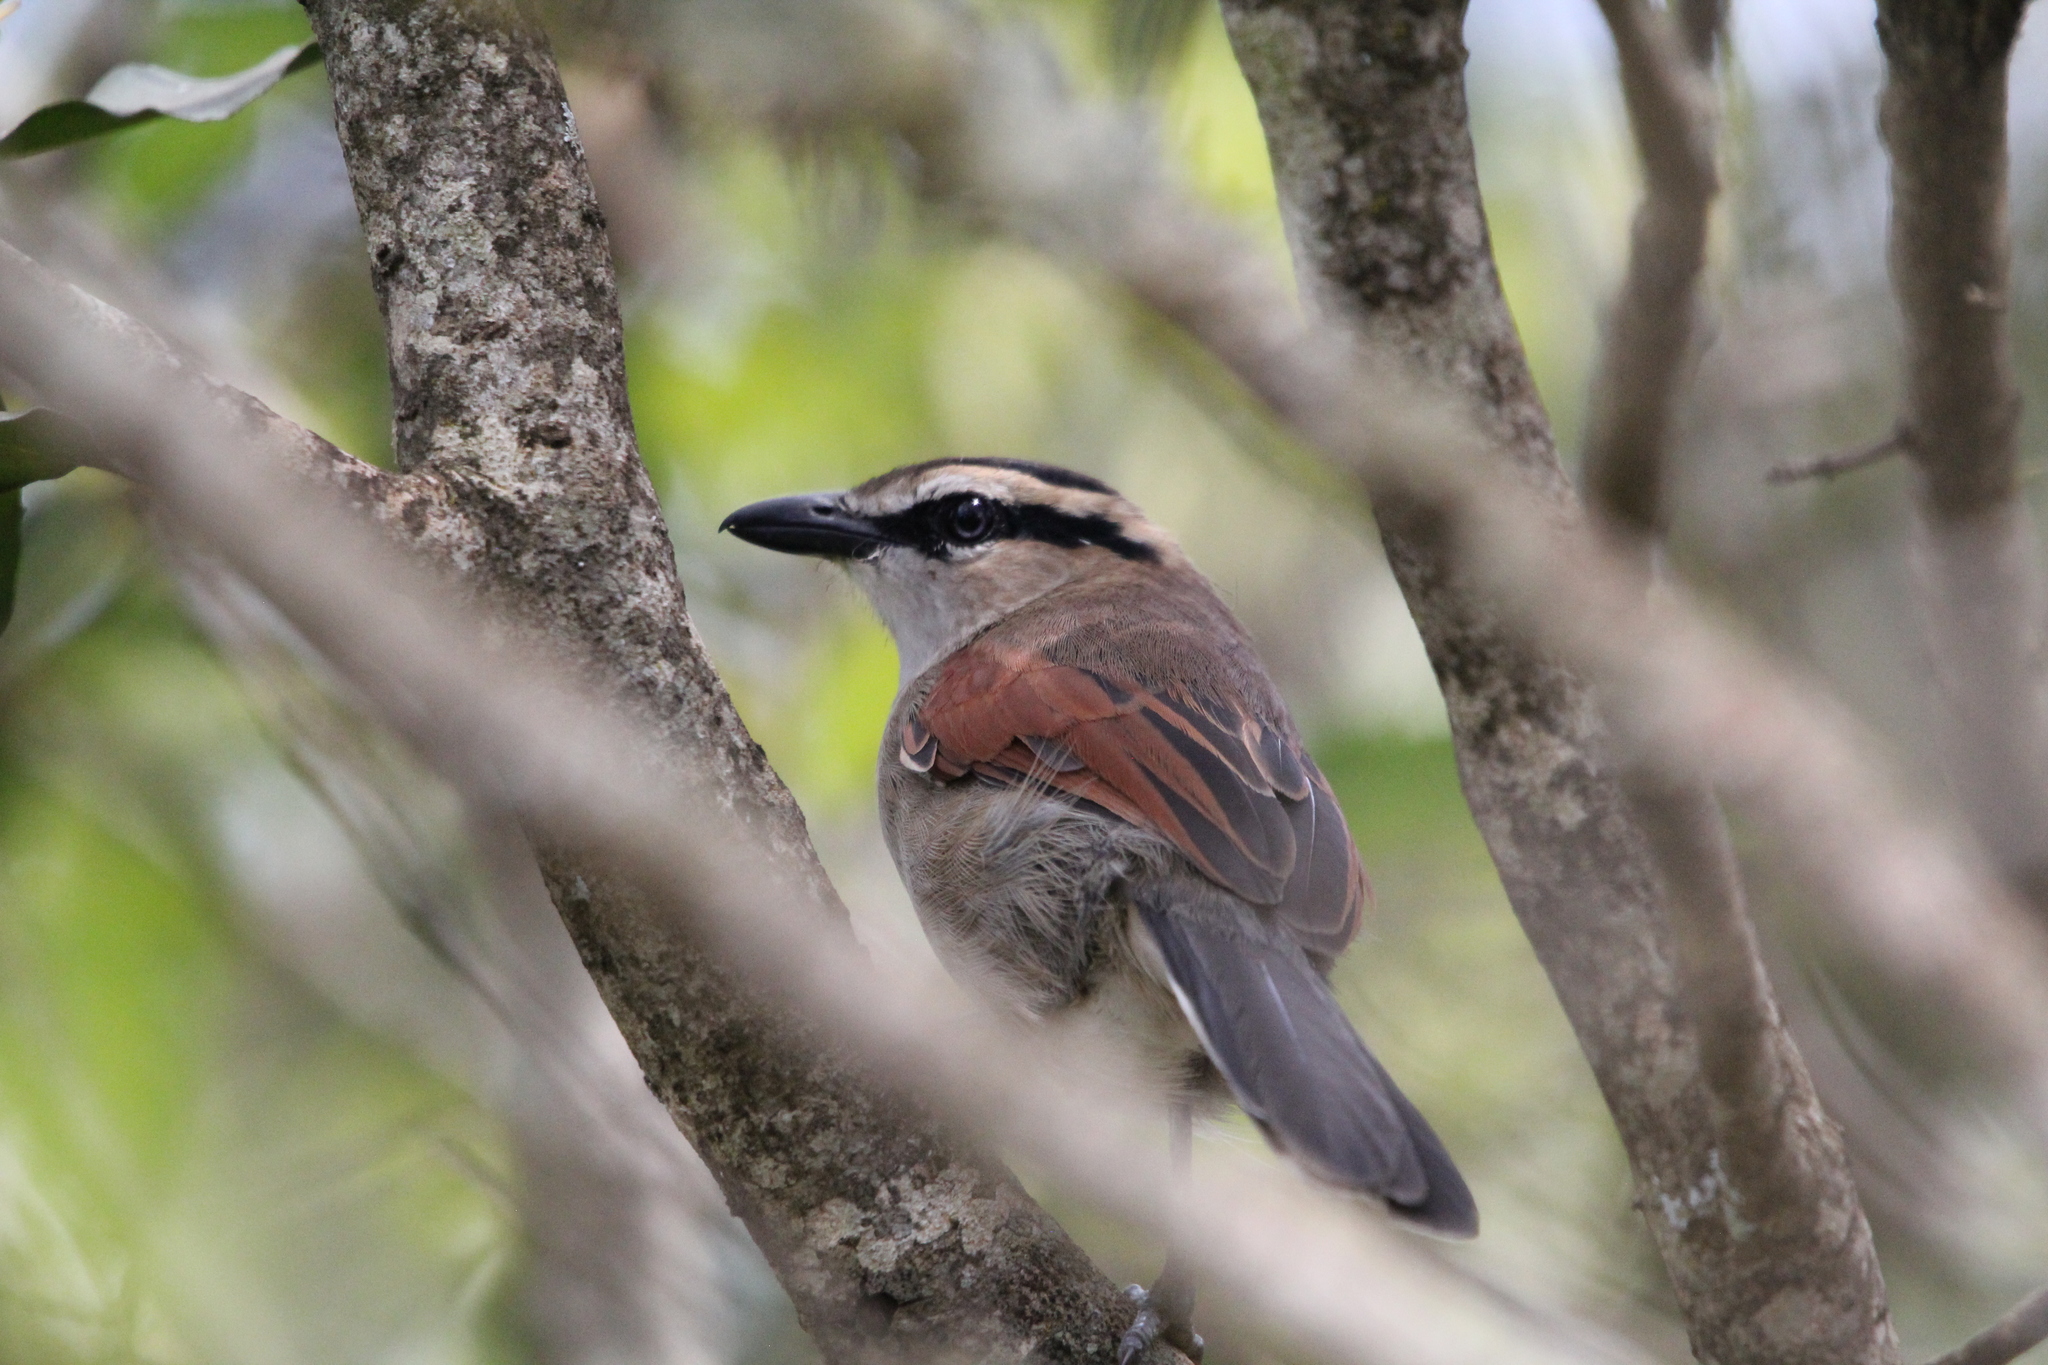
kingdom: Animalia
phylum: Chordata
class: Aves
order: Passeriformes
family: Malaconotidae
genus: Tchagra
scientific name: Tchagra australis
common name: Brown-crowned tchagra
